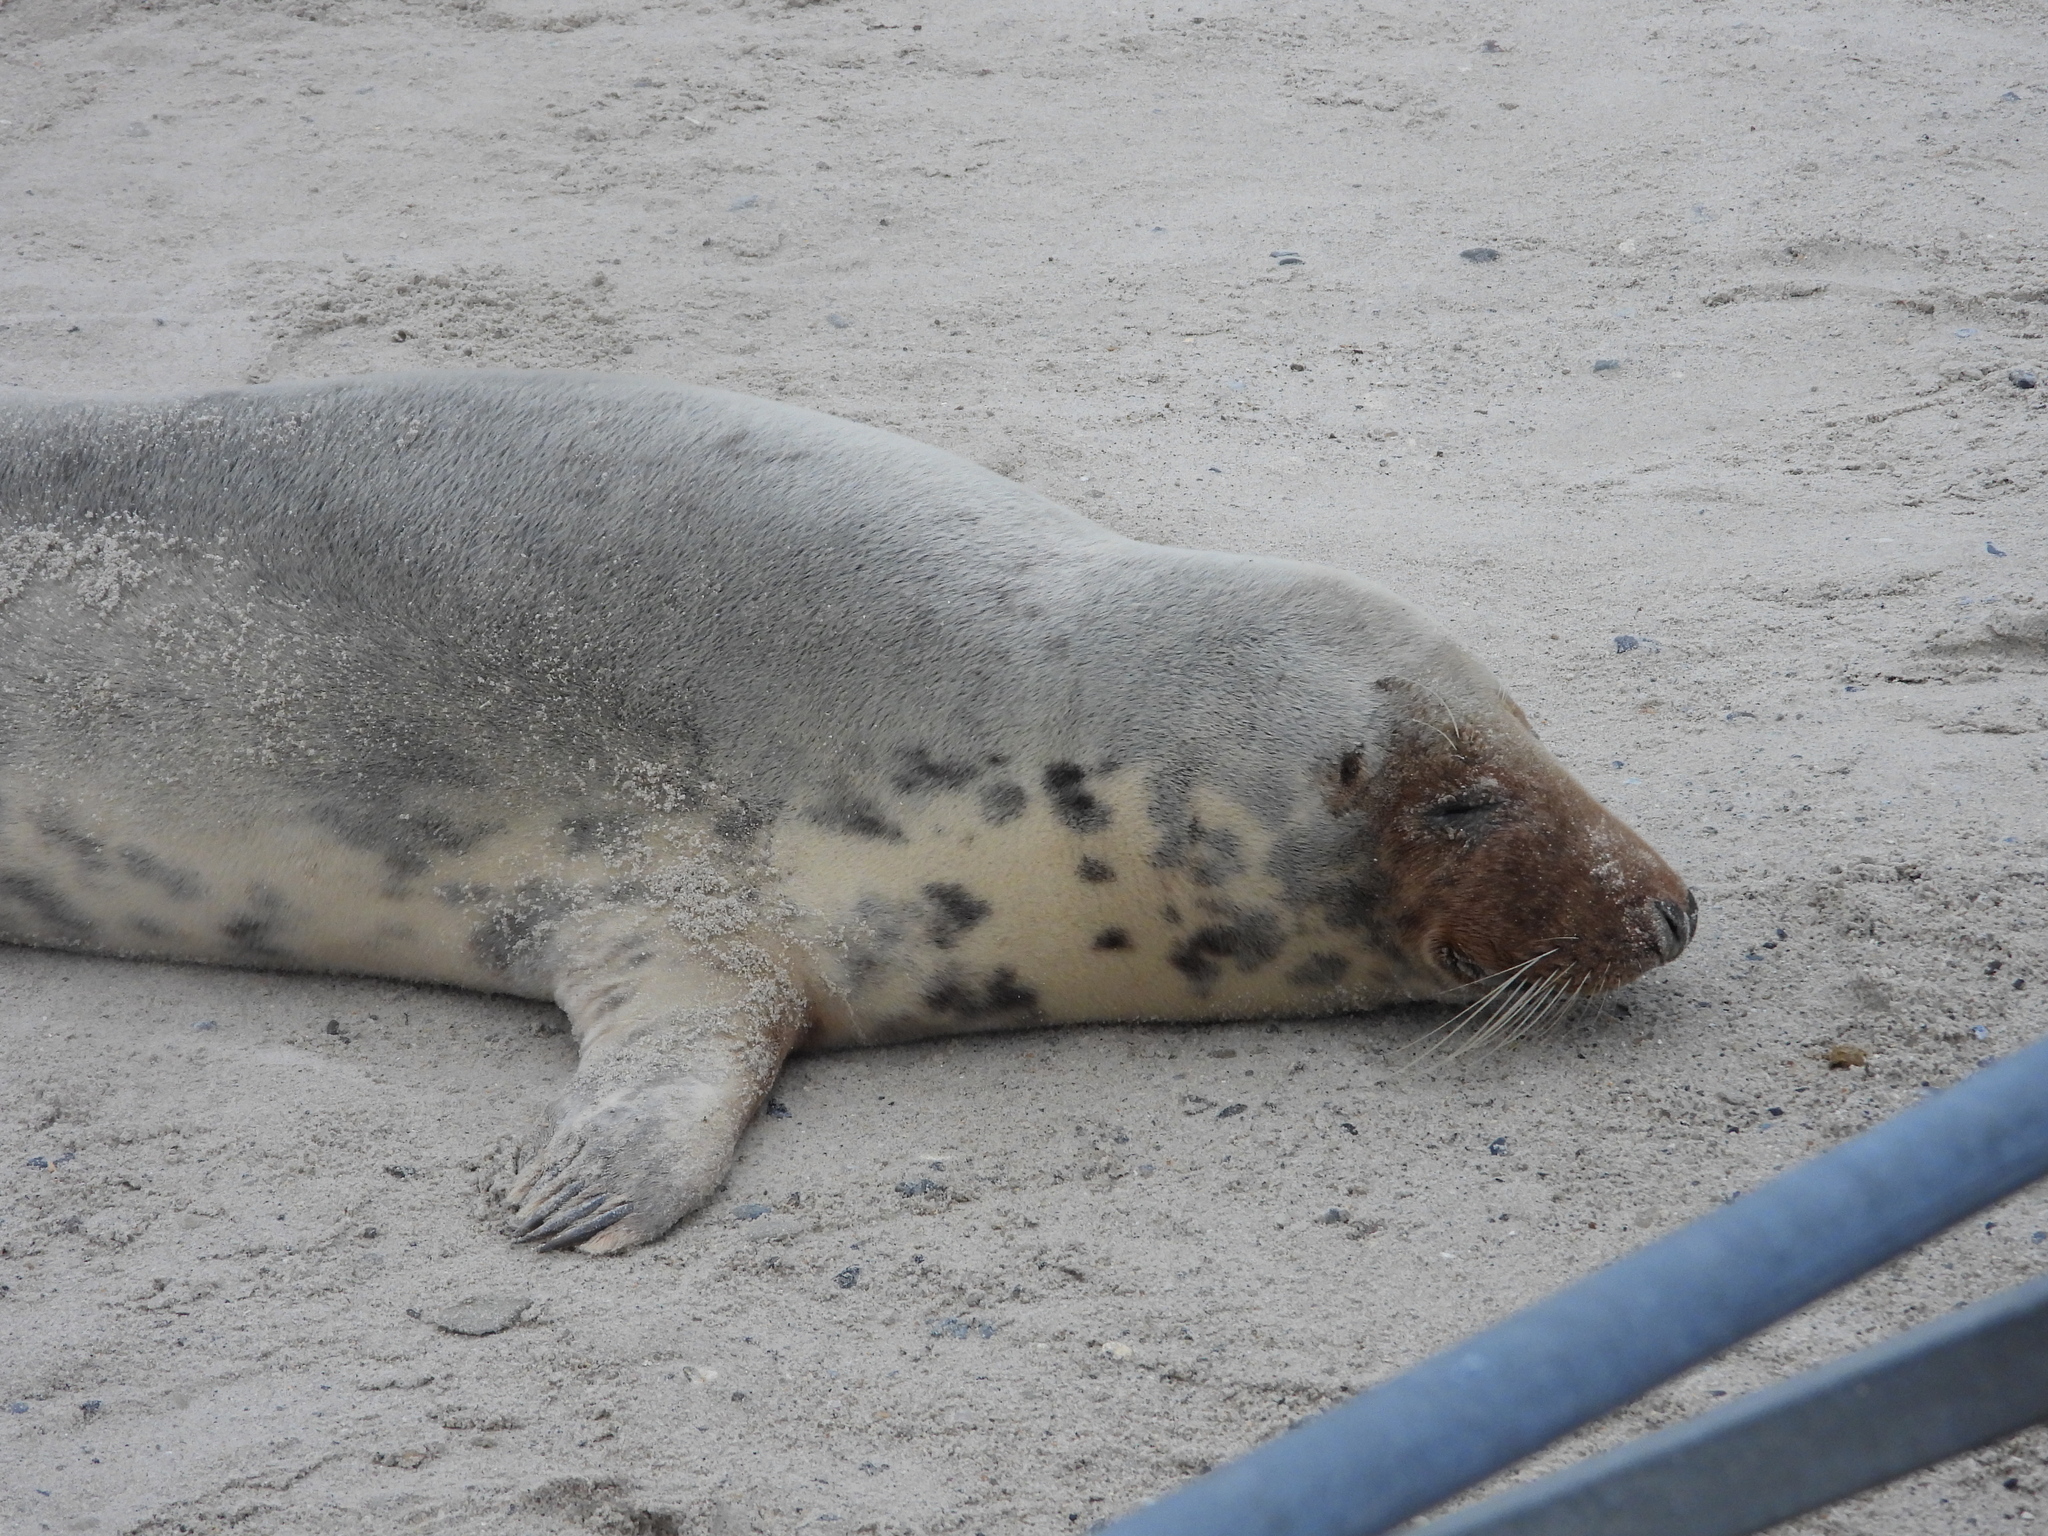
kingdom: Animalia
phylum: Chordata
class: Mammalia
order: Carnivora
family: Phocidae
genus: Halichoerus
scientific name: Halichoerus grypus
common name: Grey seal
